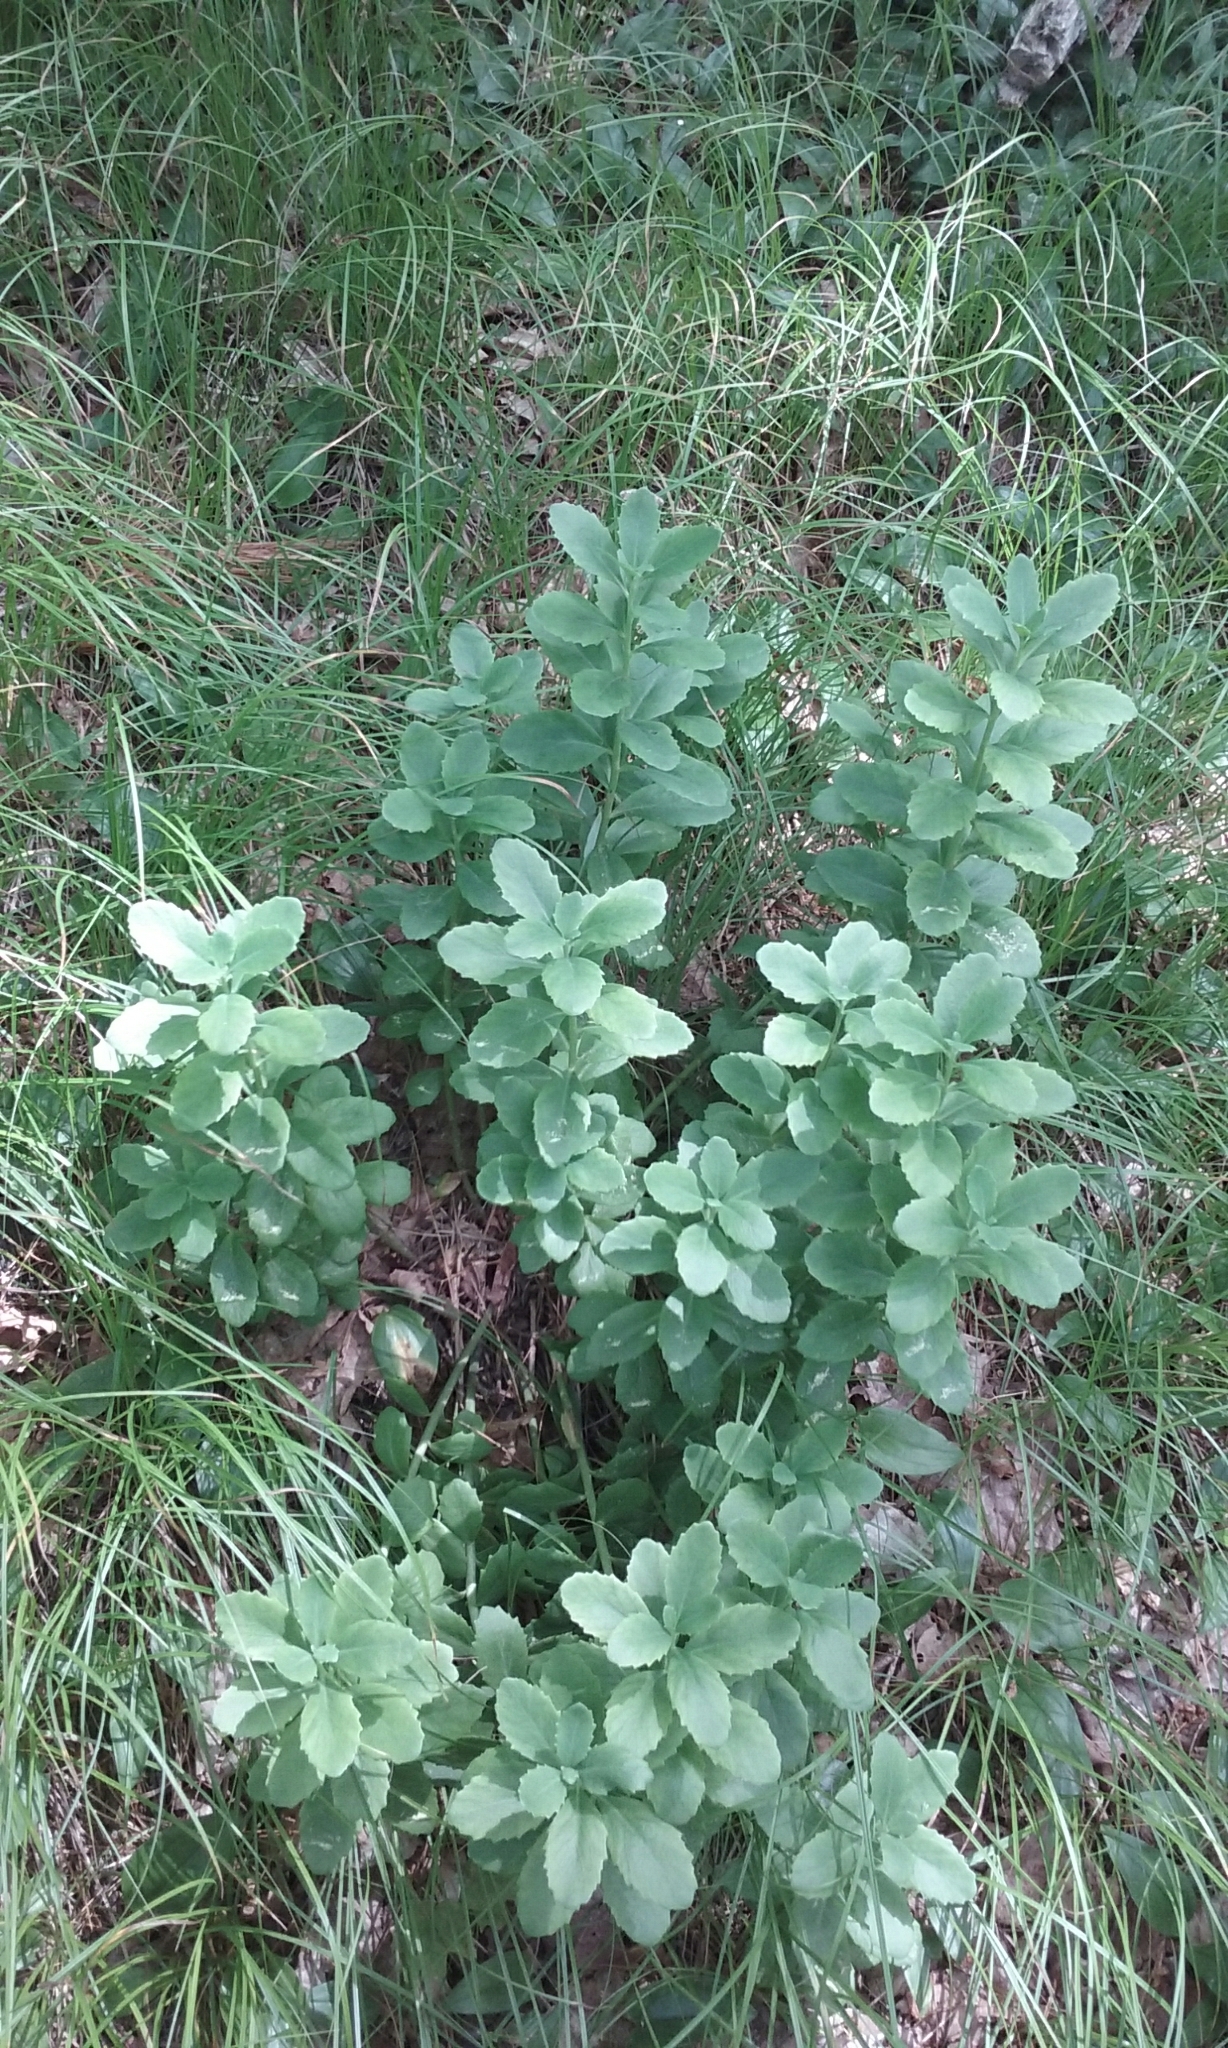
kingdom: Plantae
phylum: Tracheophyta
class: Magnoliopsida
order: Saxifragales
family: Crassulaceae
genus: Hylotelephium
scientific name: Hylotelephium telephium
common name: Live-forever
